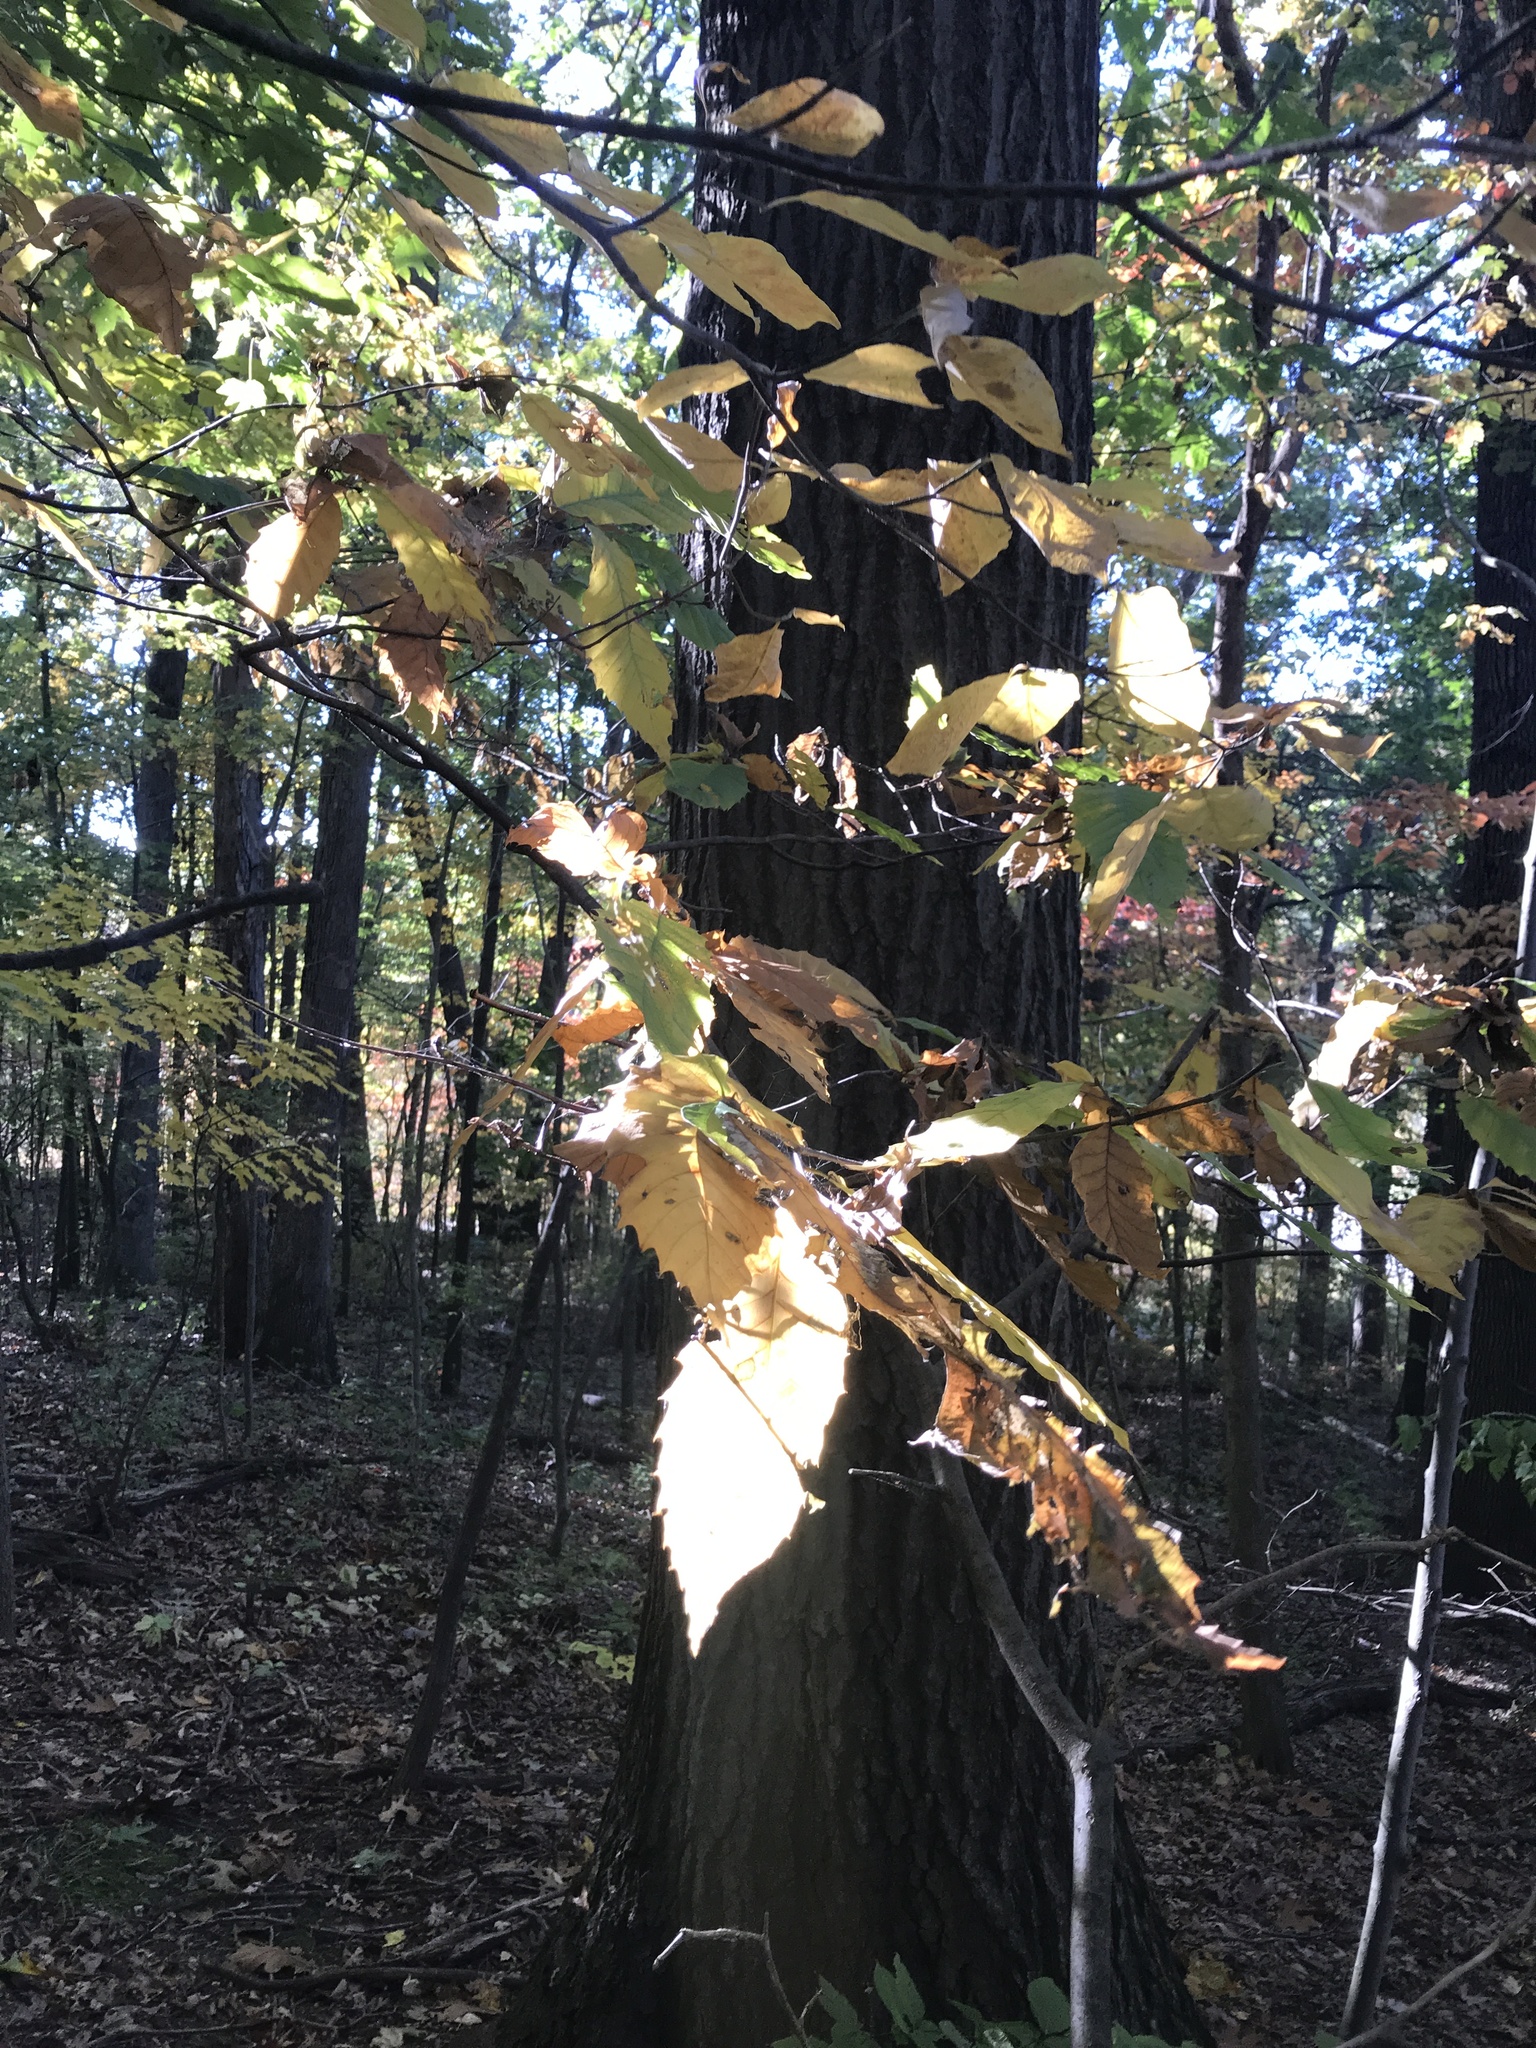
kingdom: Plantae
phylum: Tracheophyta
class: Magnoliopsida
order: Fagales
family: Fagaceae
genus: Castanea
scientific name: Castanea dentata
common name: American chestnut
